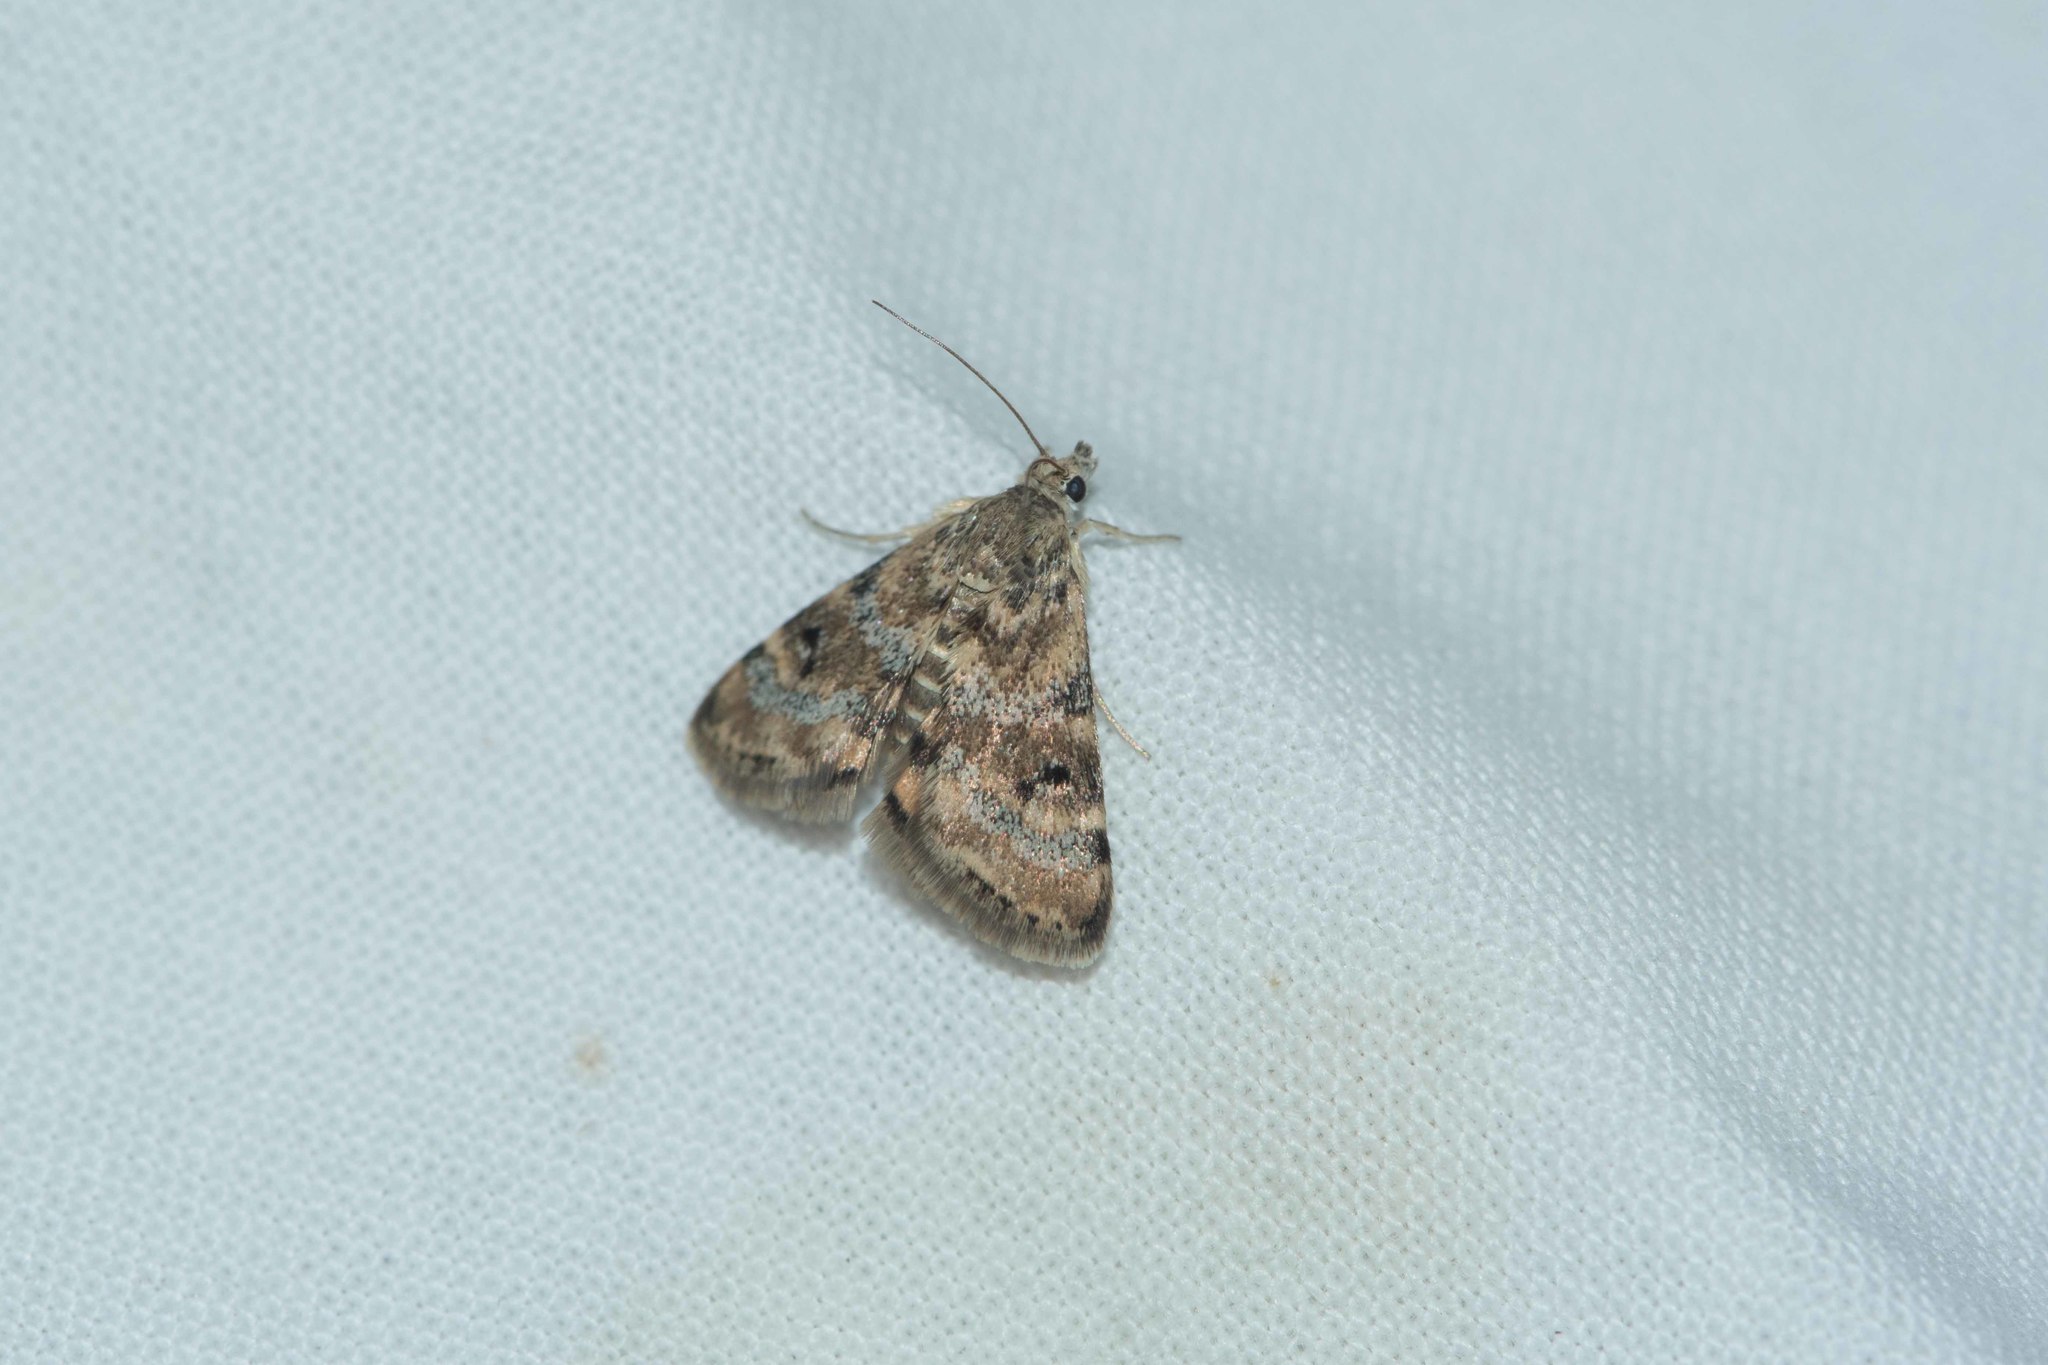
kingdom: Animalia
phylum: Arthropoda
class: Insecta
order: Lepidoptera
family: Crambidae
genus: Noctuelia
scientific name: Noctuelia Aporodes floralis
